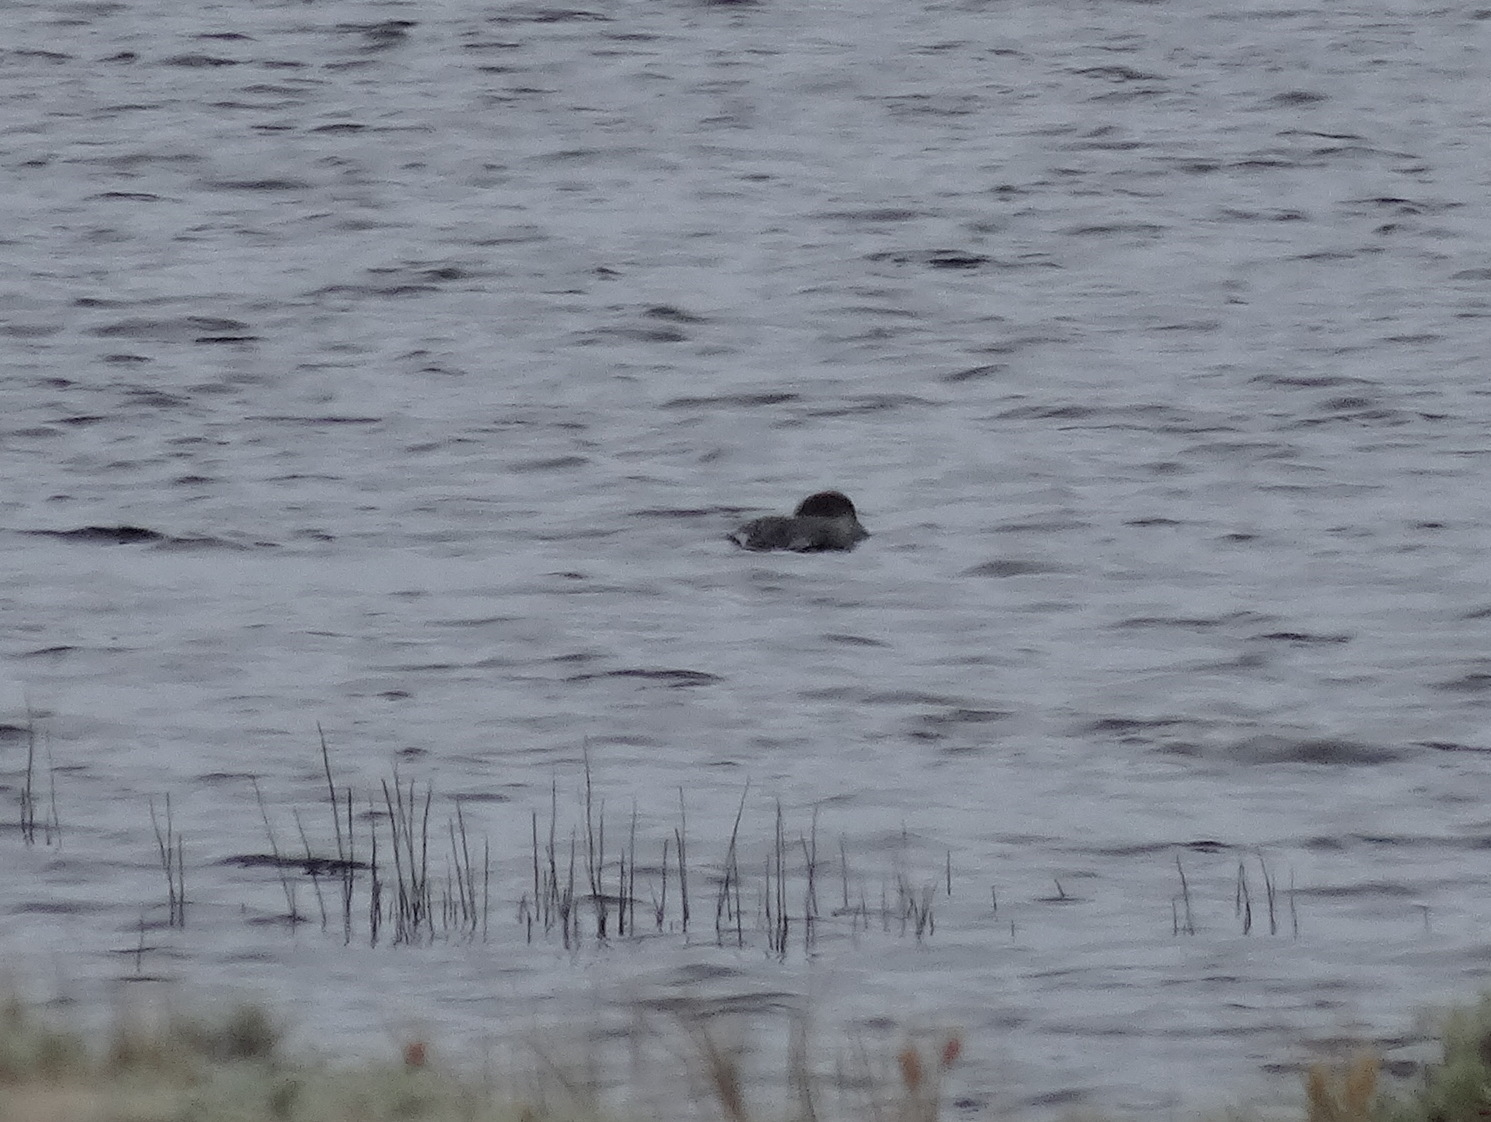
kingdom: Animalia
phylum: Chordata
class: Aves
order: Gaviiformes
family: Gaviidae
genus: Gavia
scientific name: Gavia immer
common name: Common loon
